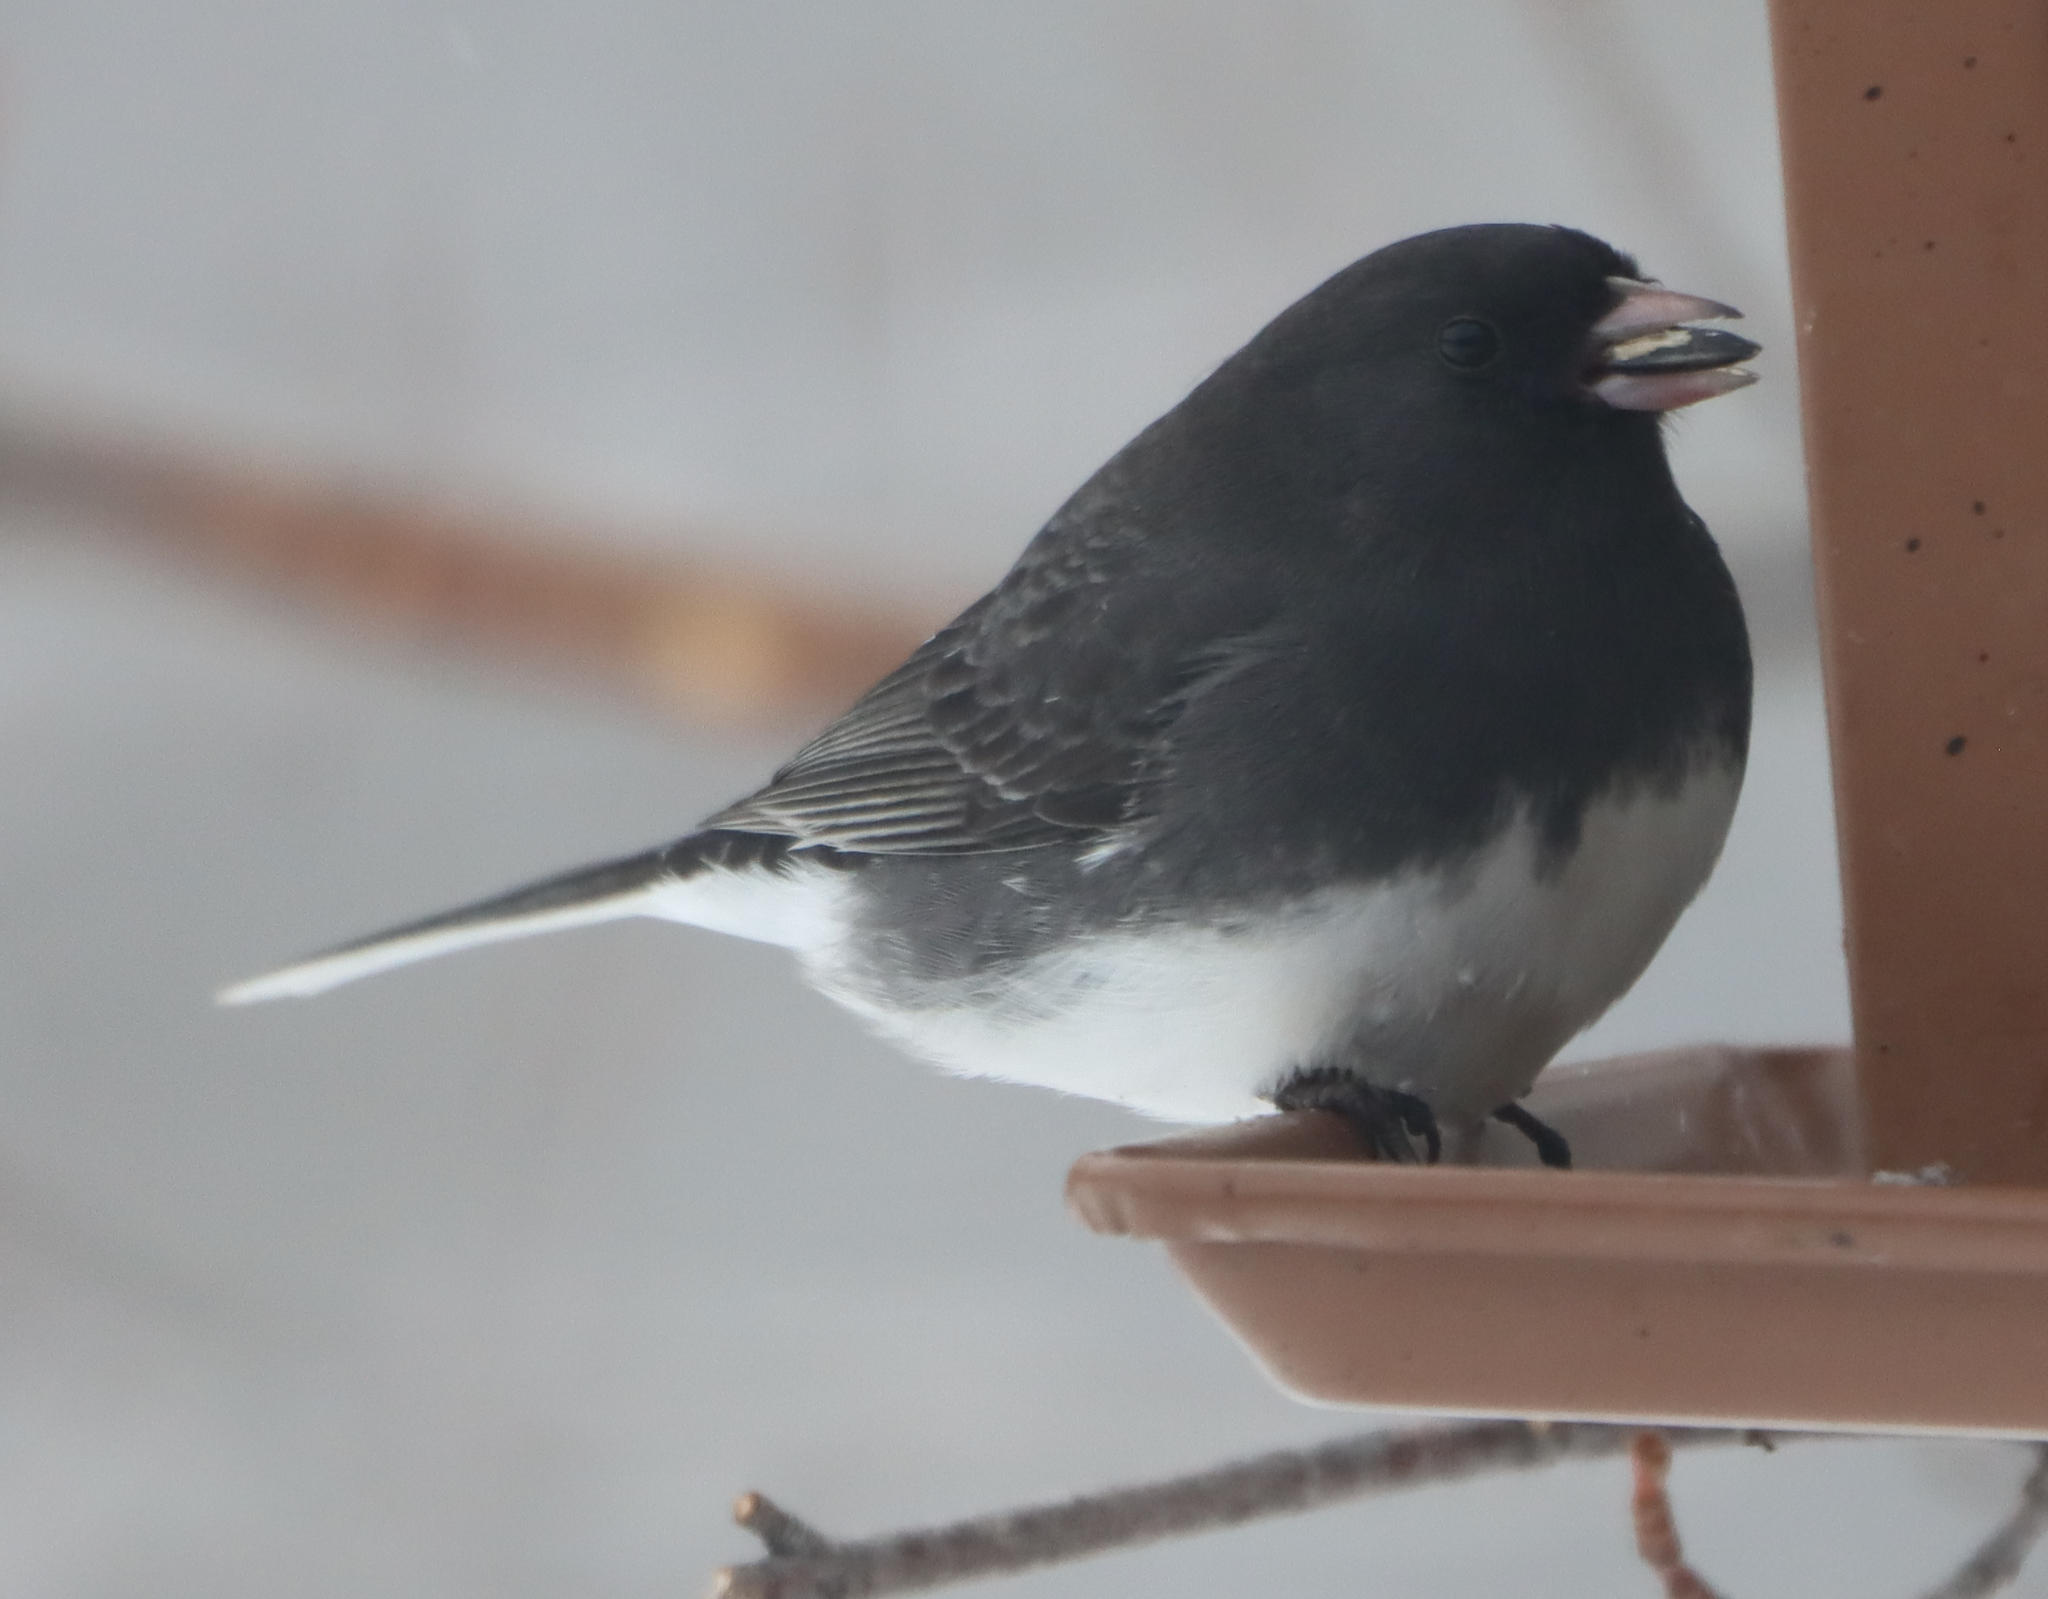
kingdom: Animalia
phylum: Chordata
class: Aves
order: Passeriformes
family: Passerellidae
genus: Junco
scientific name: Junco hyemalis
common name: Dark-eyed junco
